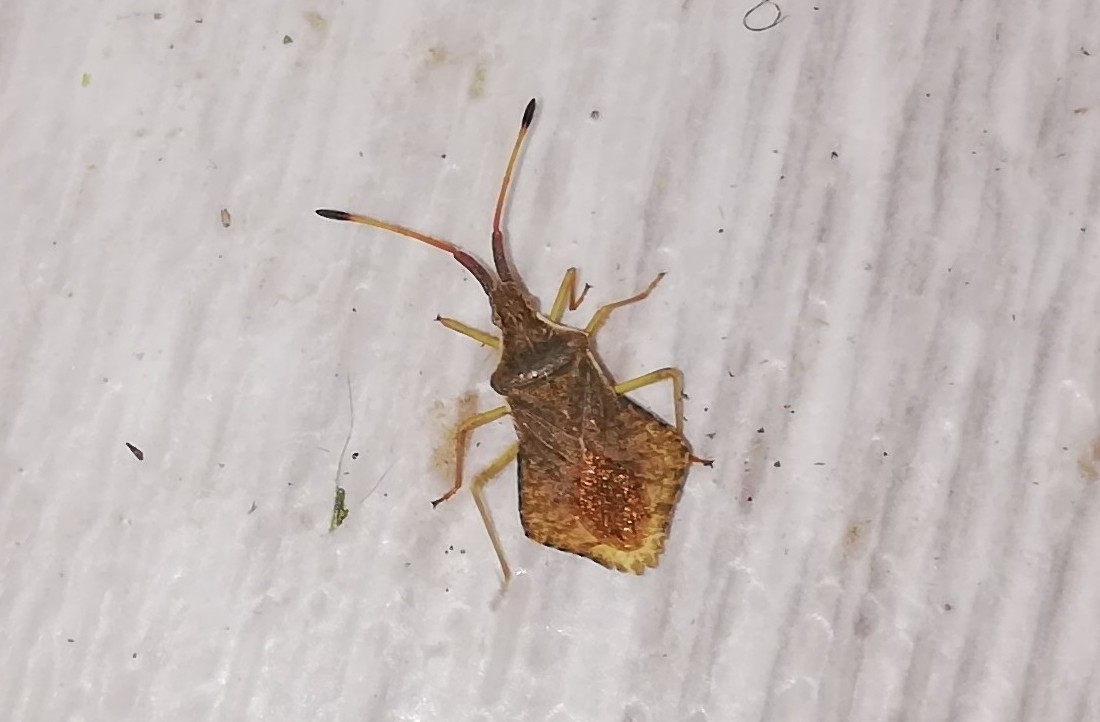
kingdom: Animalia
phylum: Arthropoda
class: Insecta
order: Hemiptera
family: Coreidae
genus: Syromastus
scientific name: Syromastus rhombeus
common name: Rhombic leatherbug
